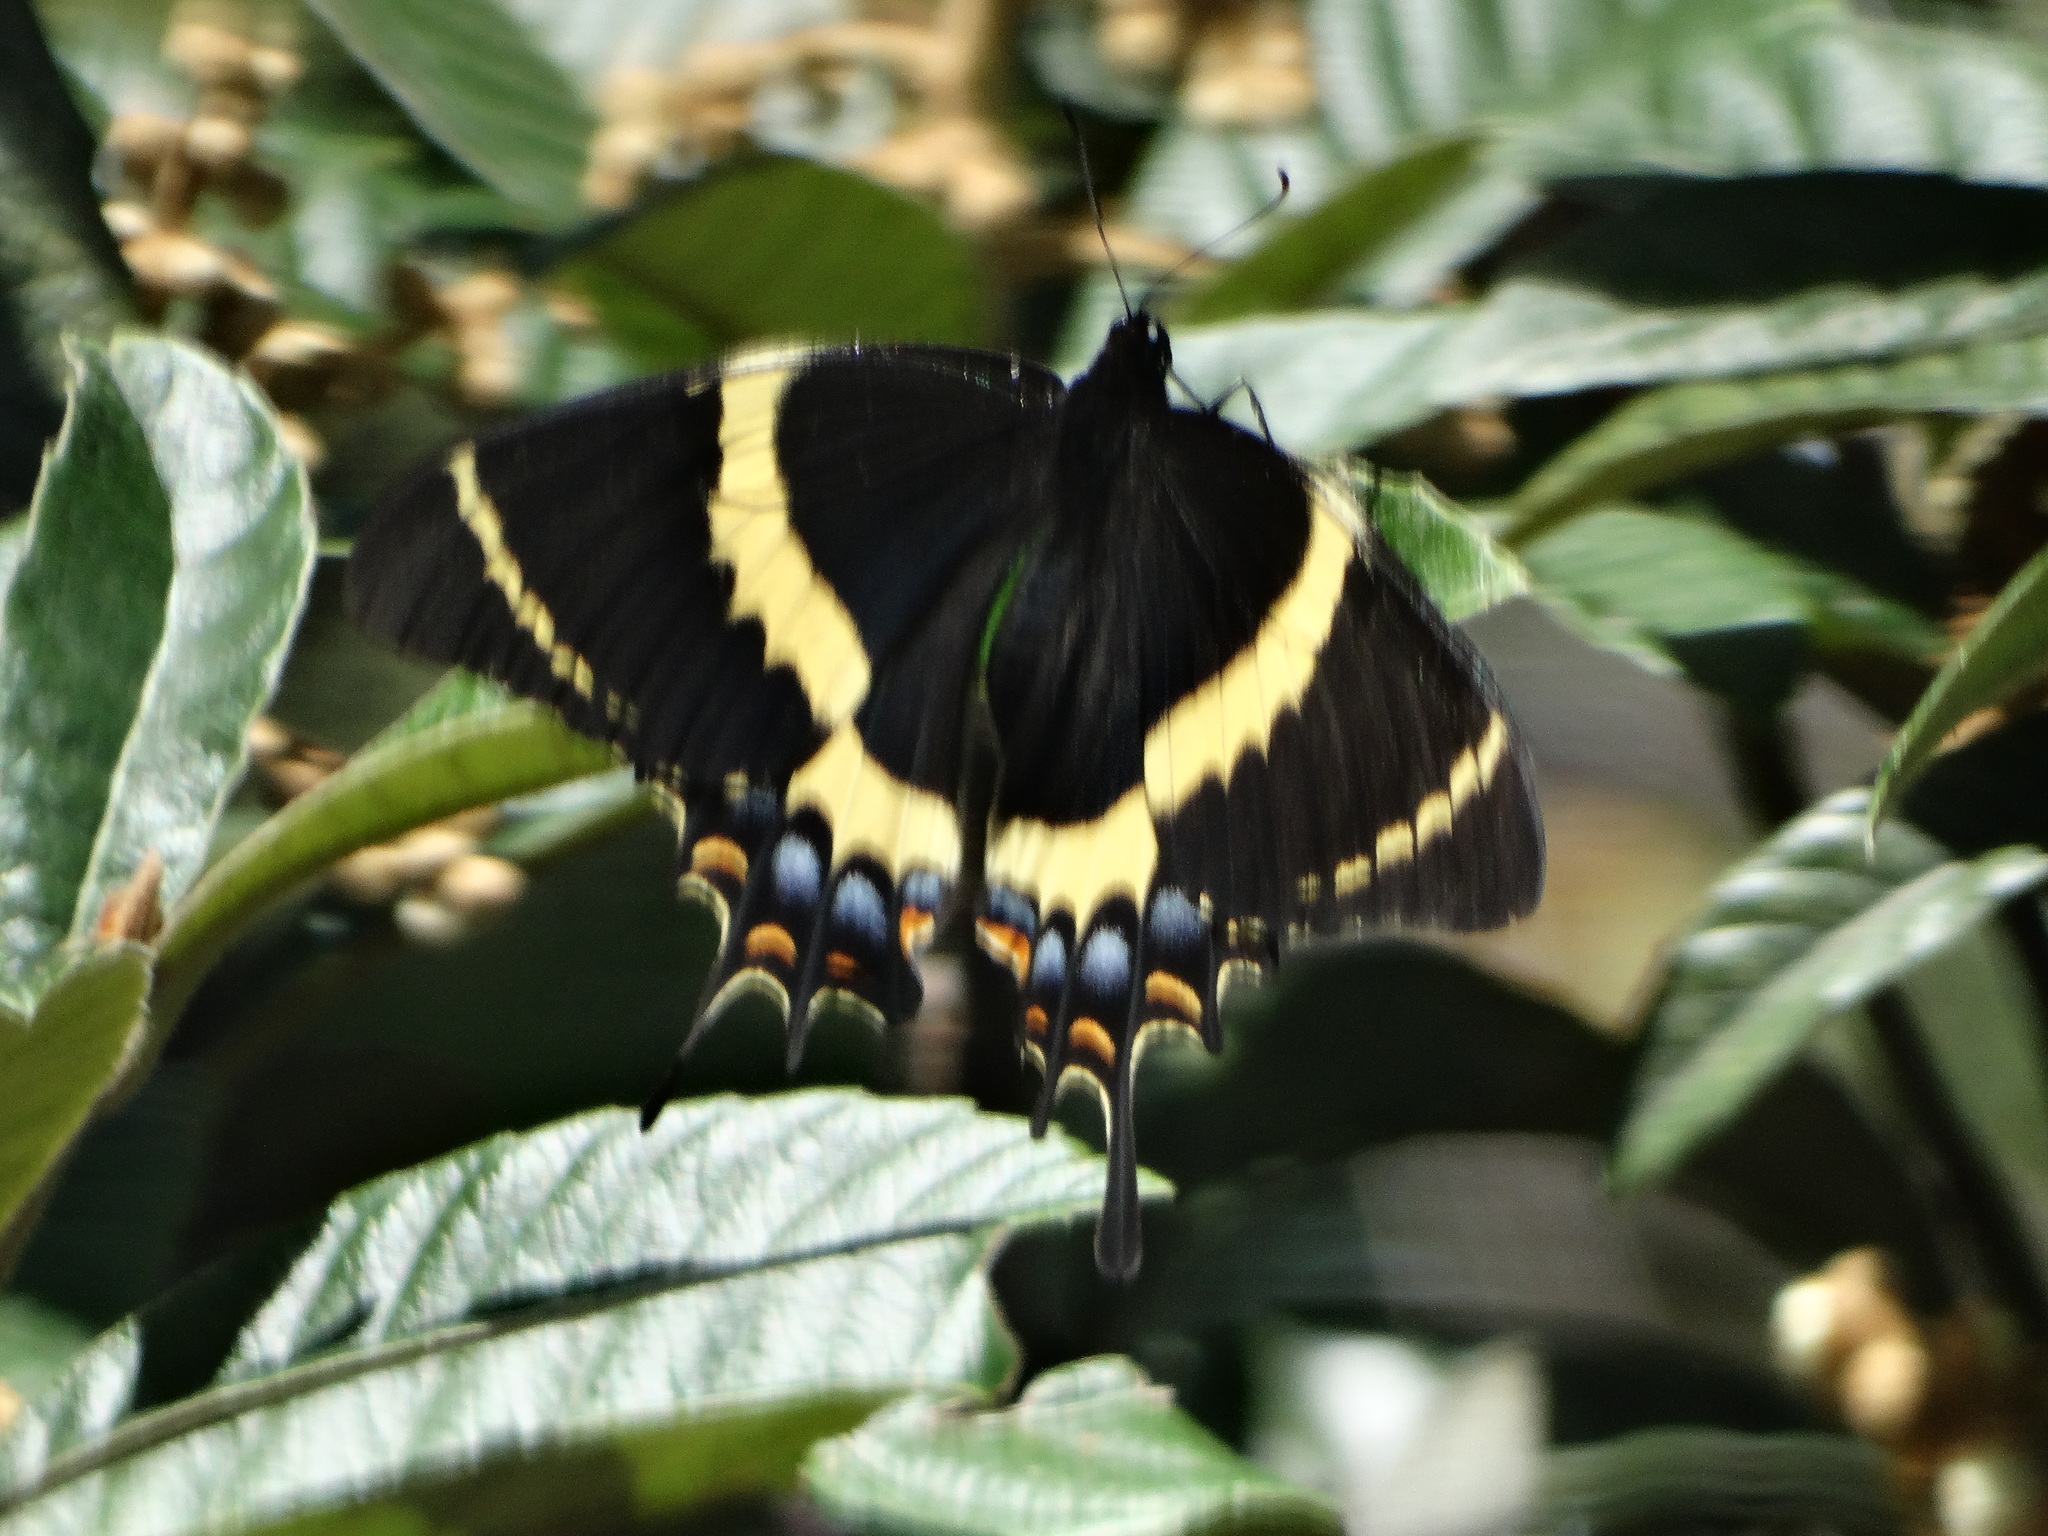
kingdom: Animalia
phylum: Arthropoda
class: Insecta
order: Lepidoptera
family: Papilionidae
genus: Papilio
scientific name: Papilio garamas
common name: Magnificent swallowtail
